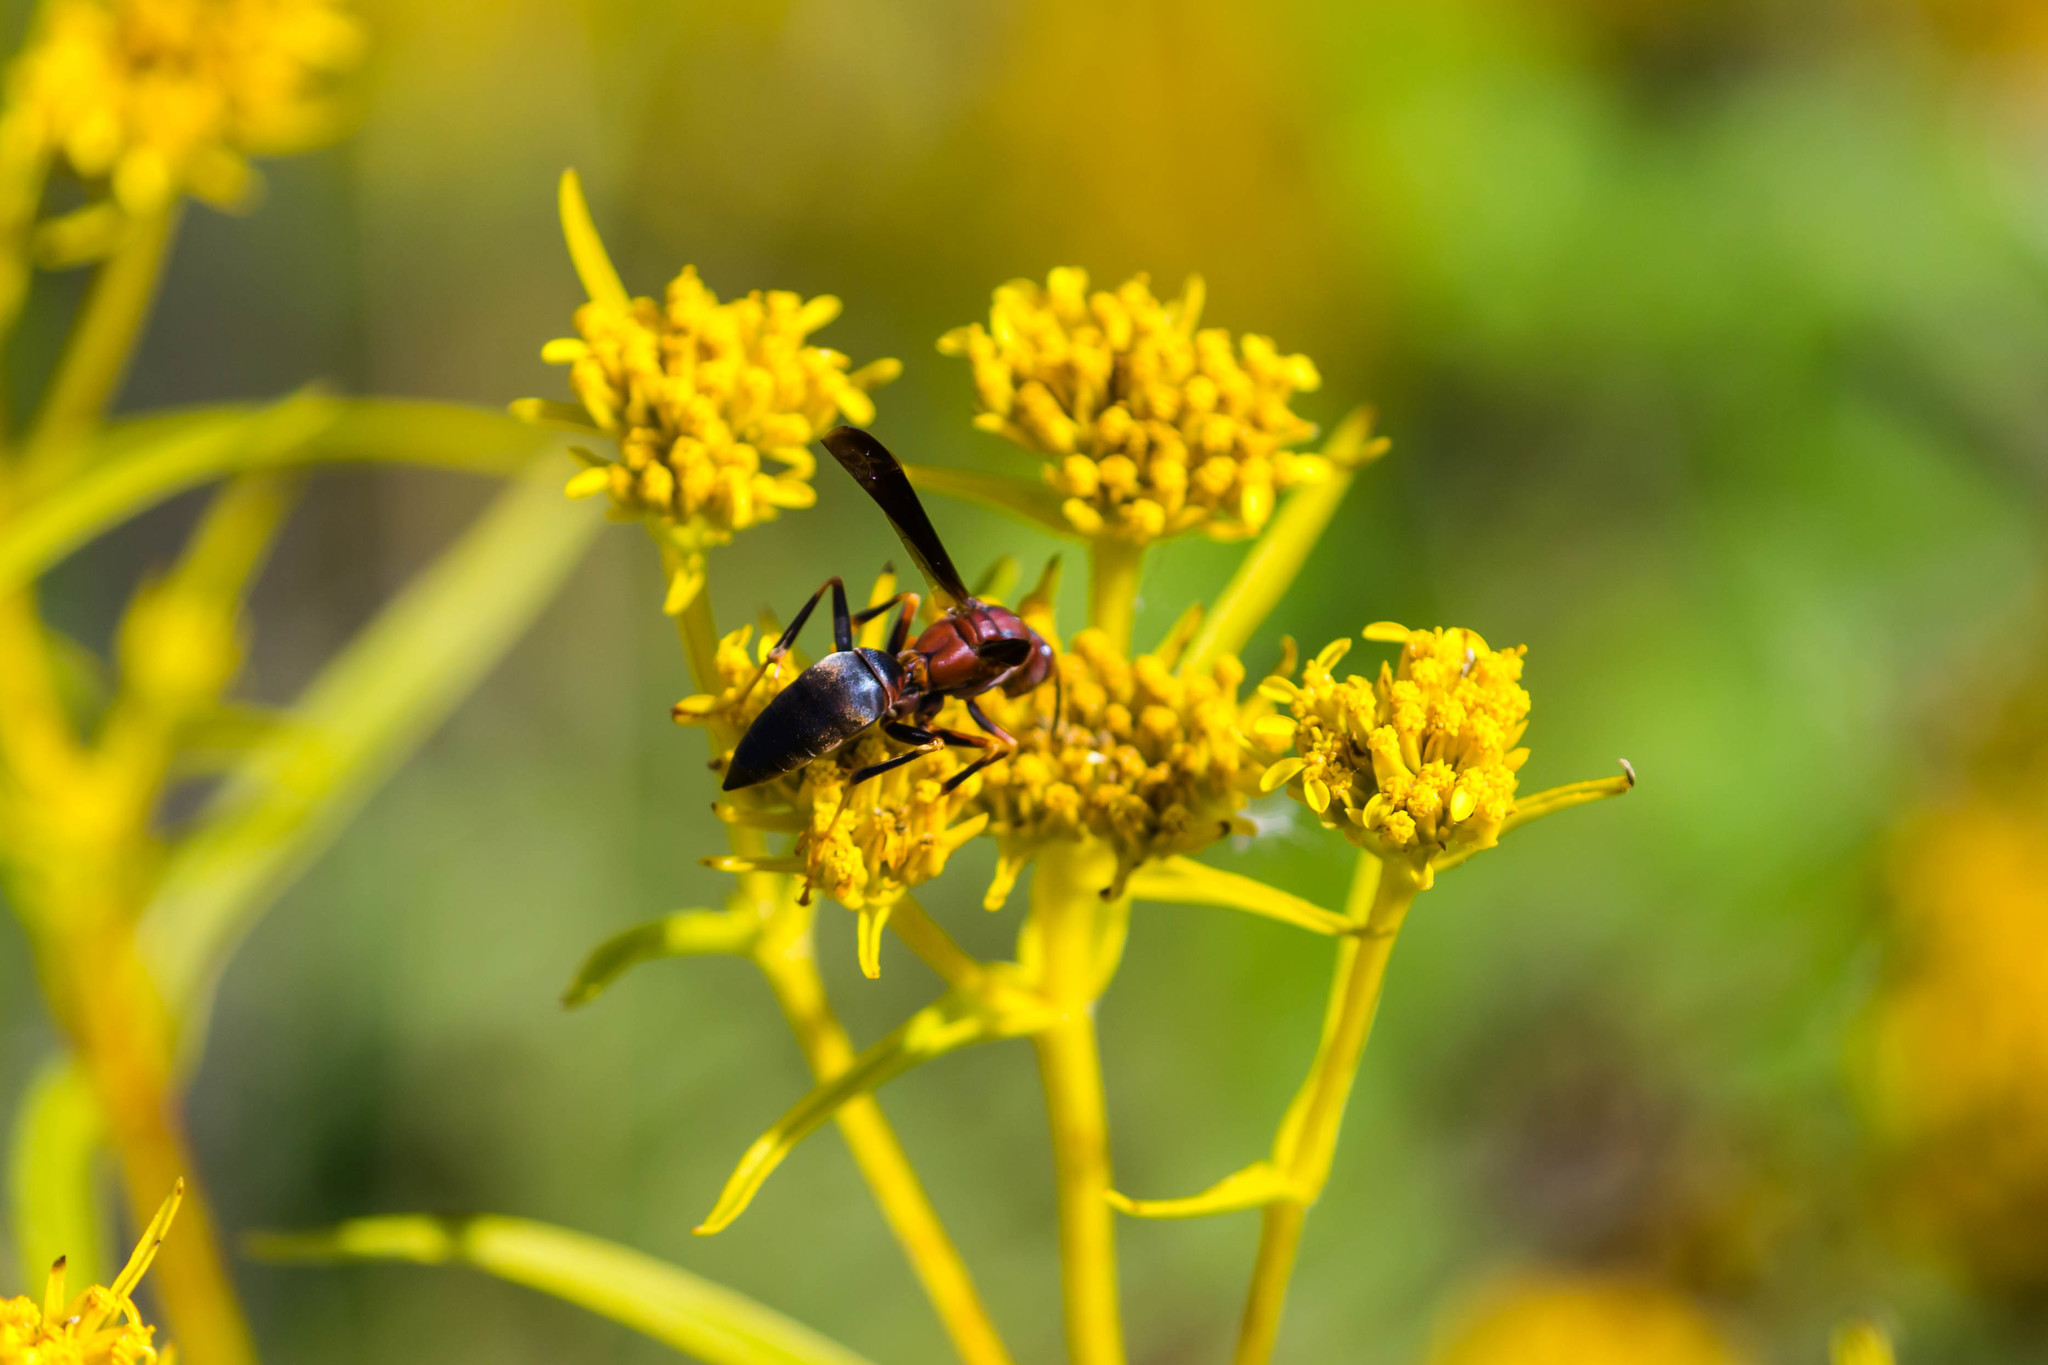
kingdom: Animalia
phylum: Arthropoda
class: Insecta
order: Hymenoptera
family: Eumenidae
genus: Polistes
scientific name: Polistes metricus
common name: Metric paper wasp
